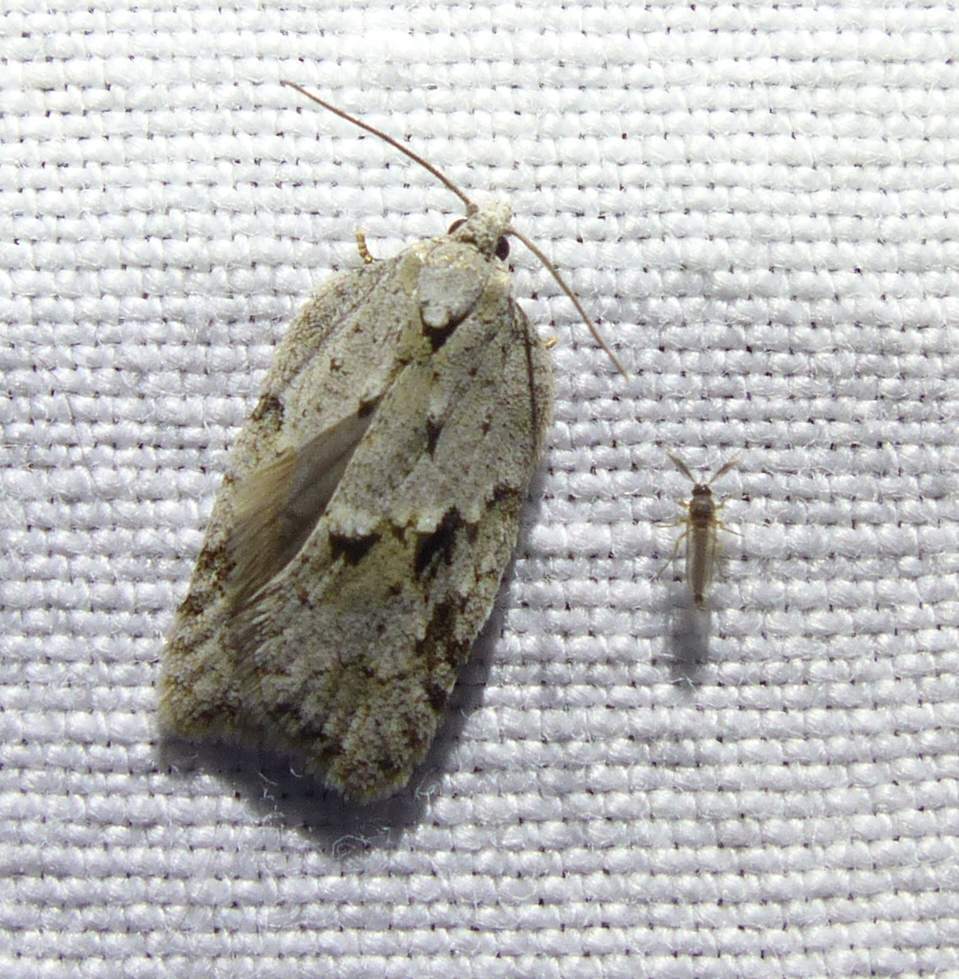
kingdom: Animalia
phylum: Arthropoda
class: Insecta
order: Lepidoptera
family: Tortricidae
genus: Acleris
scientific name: Acleris placidana
